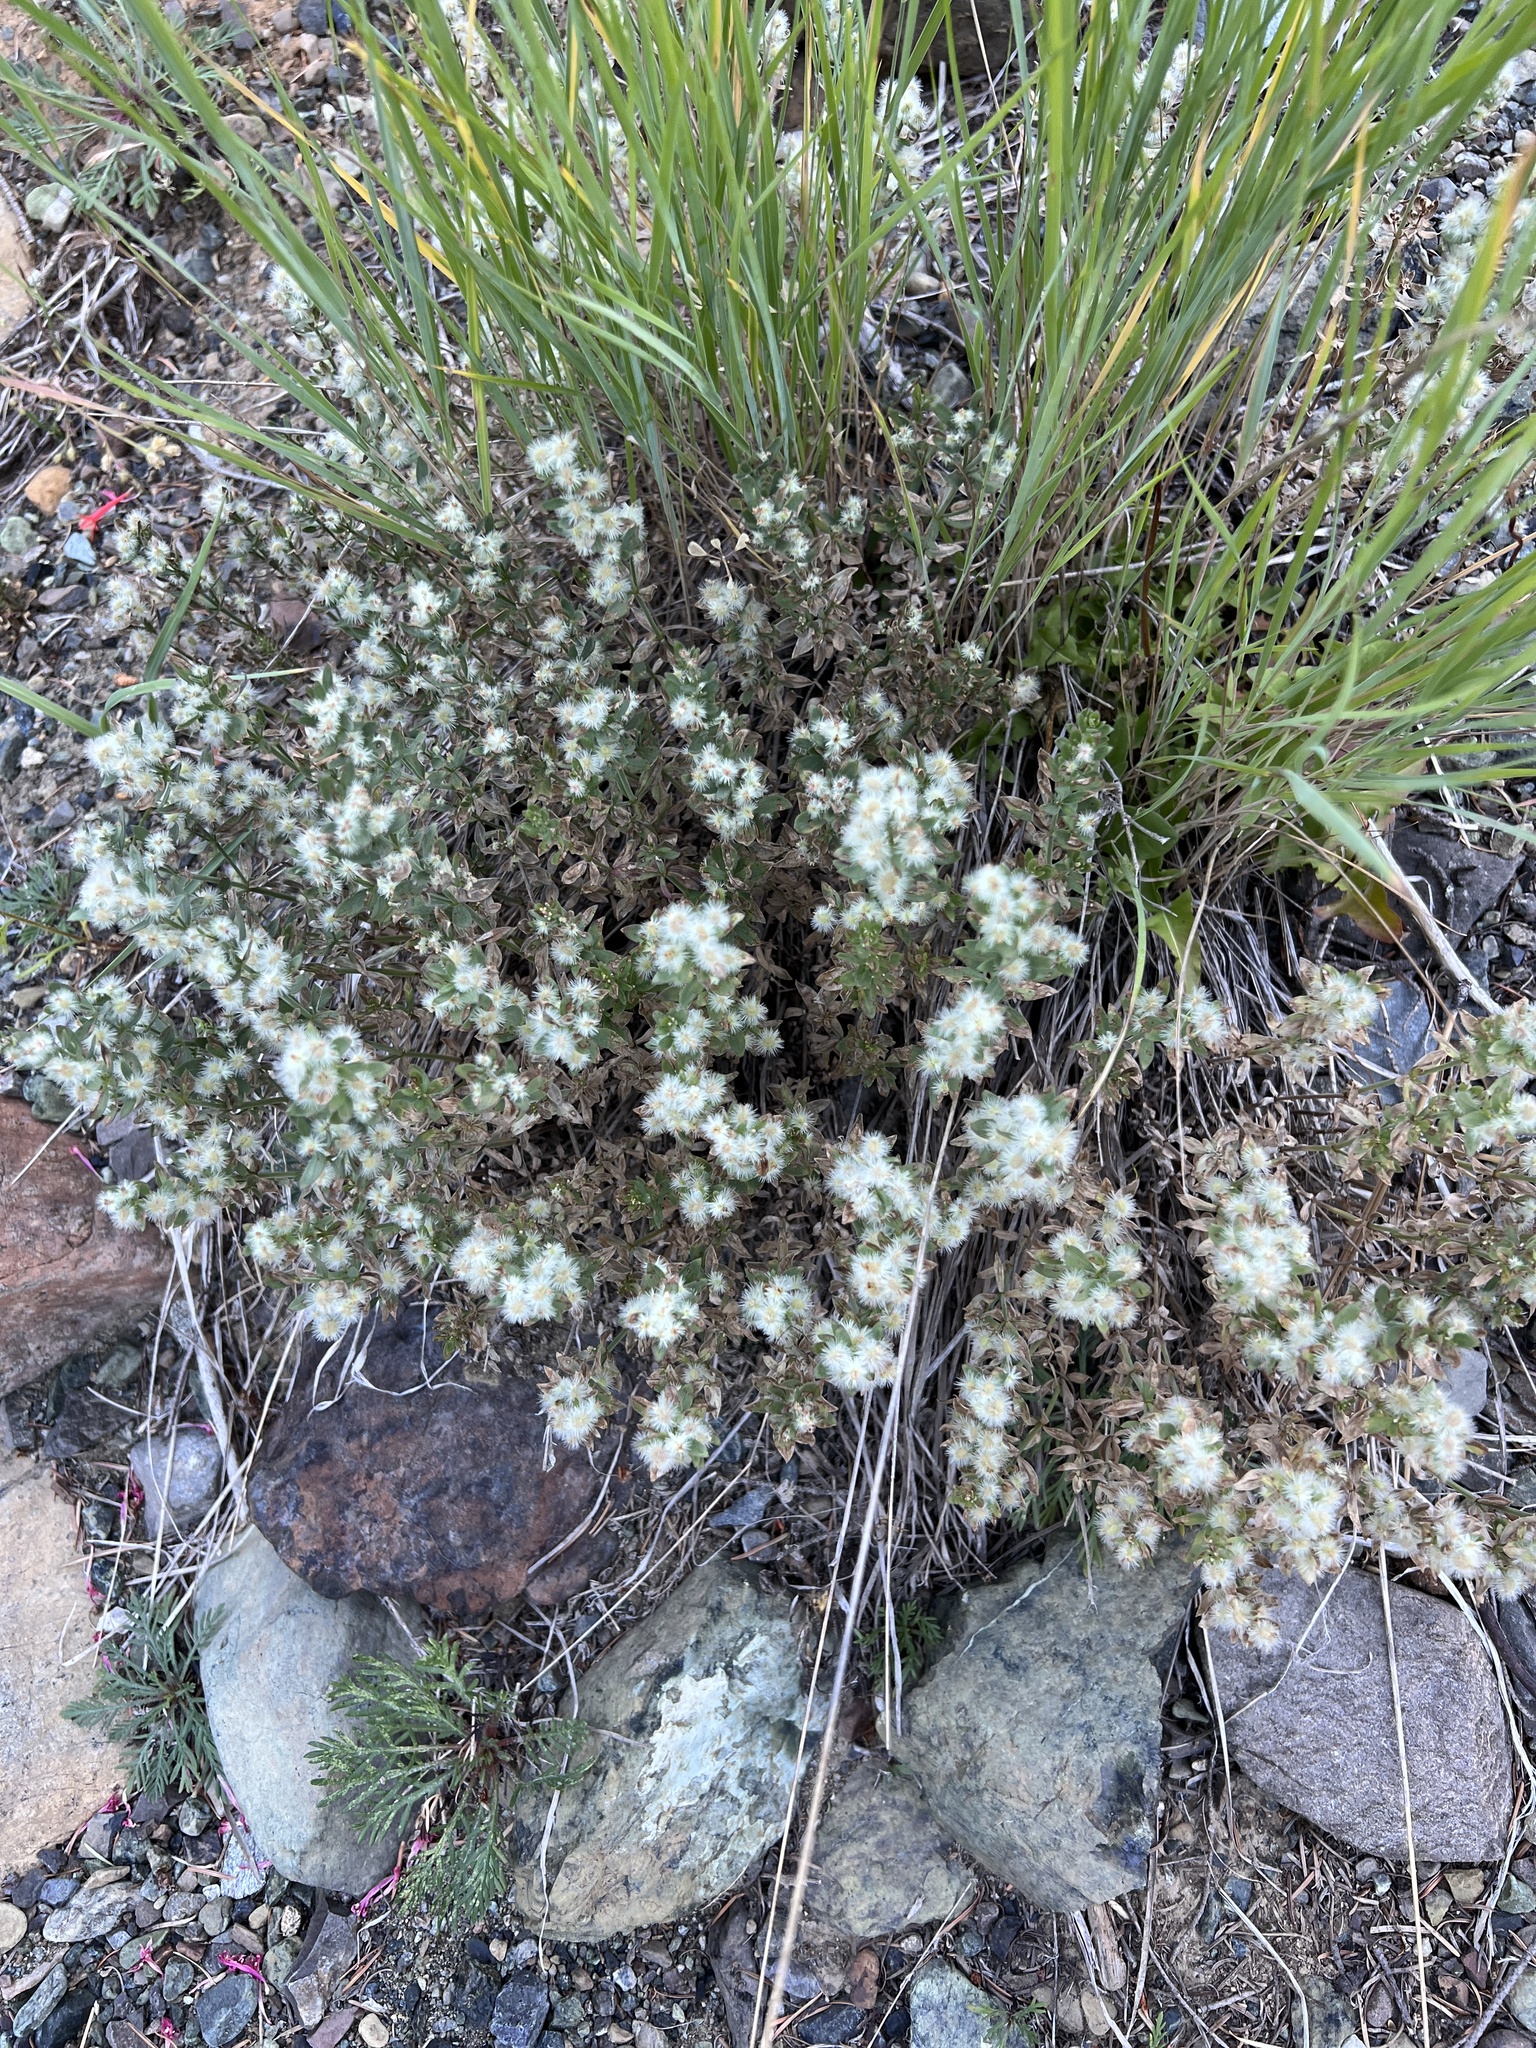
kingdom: Plantae
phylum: Tracheophyta
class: Magnoliopsida
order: Gentianales
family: Rubiaceae
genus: Galium
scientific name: Galium serpenticum
